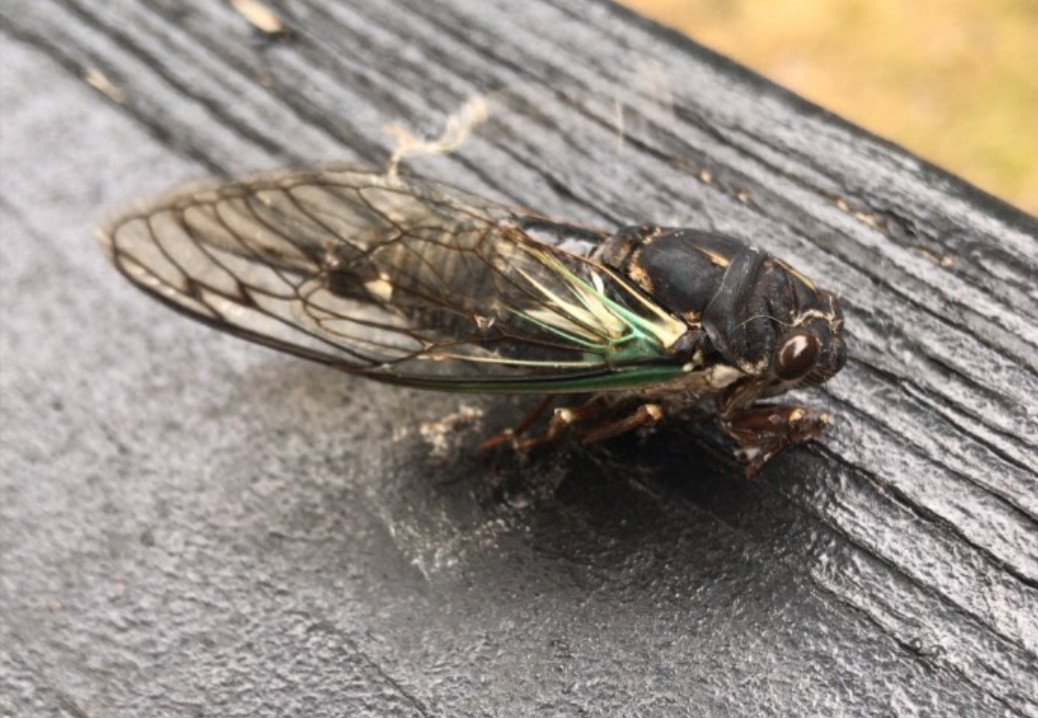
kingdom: Animalia
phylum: Arthropoda
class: Insecta
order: Hemiptera
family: Cicadidae
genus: Neotibicen
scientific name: Neotibicen lyricen
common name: Lyric cicada
